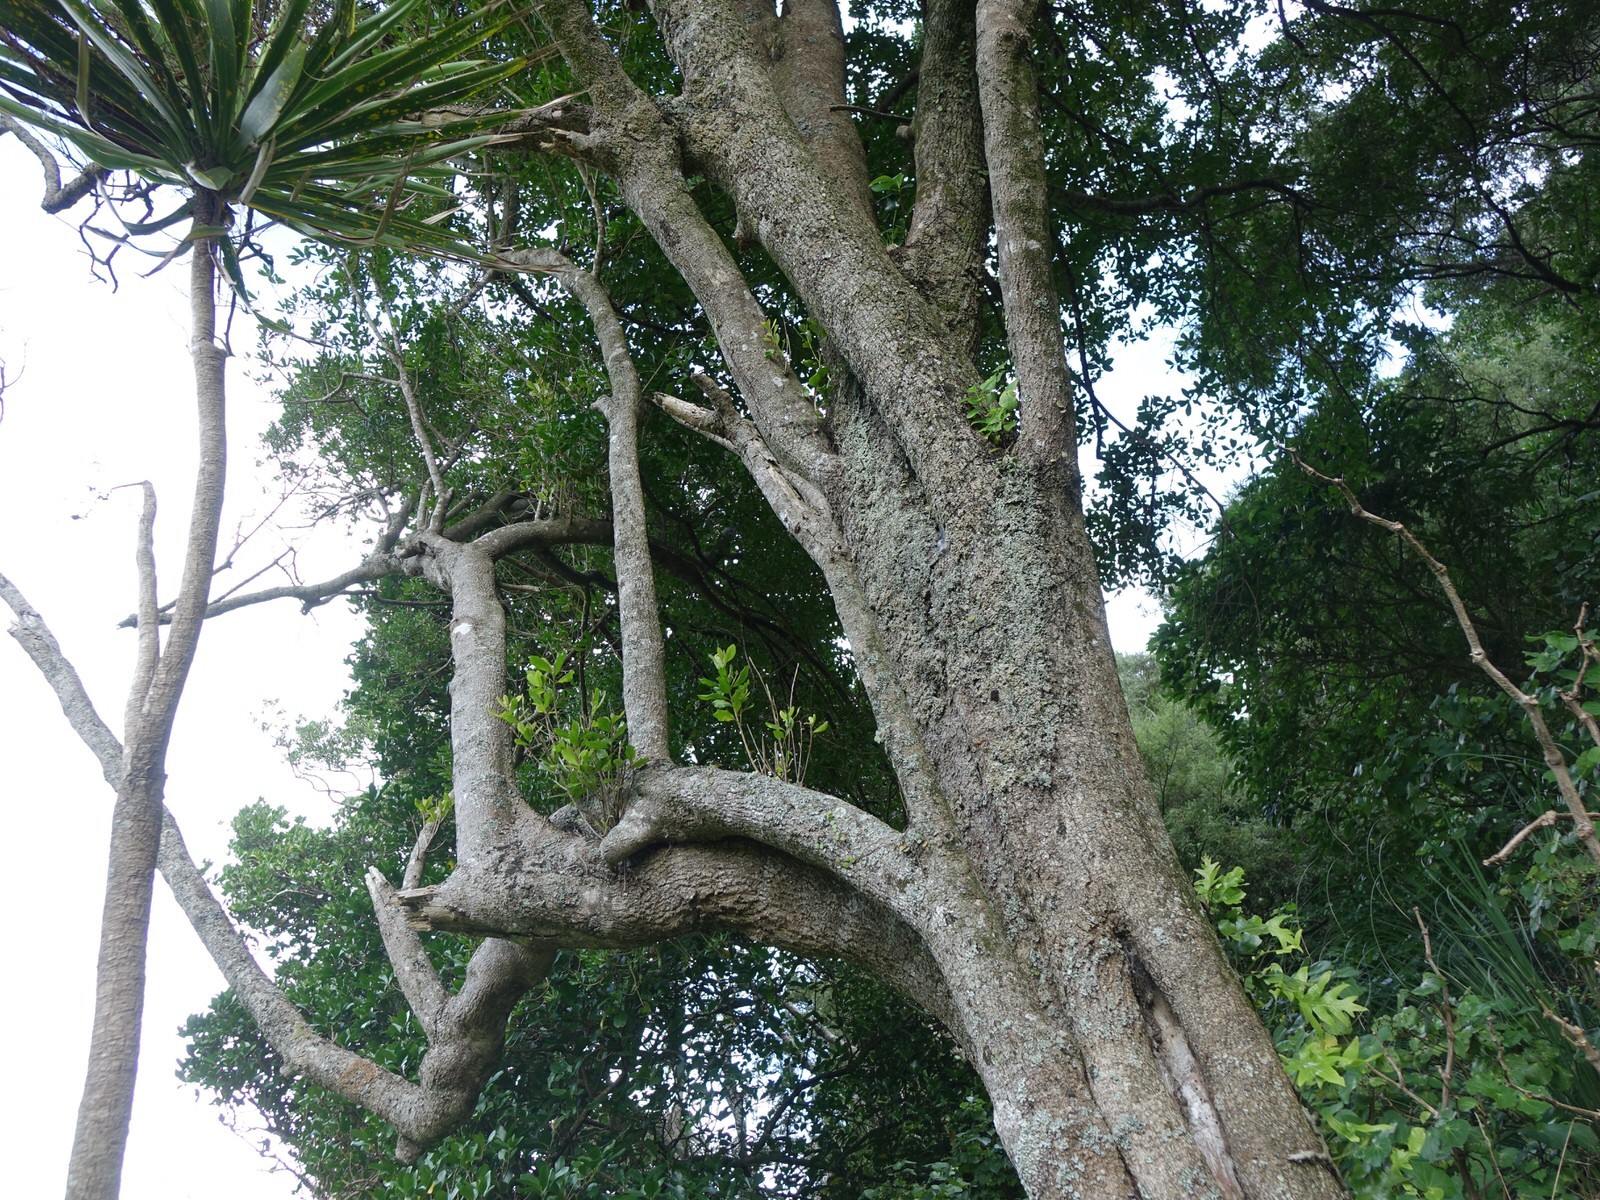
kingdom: Plantae
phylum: Tracheophyta
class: Magnoliopsida
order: Ericales
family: Sapotaceae
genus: Planchonella
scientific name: Planchonella costata
